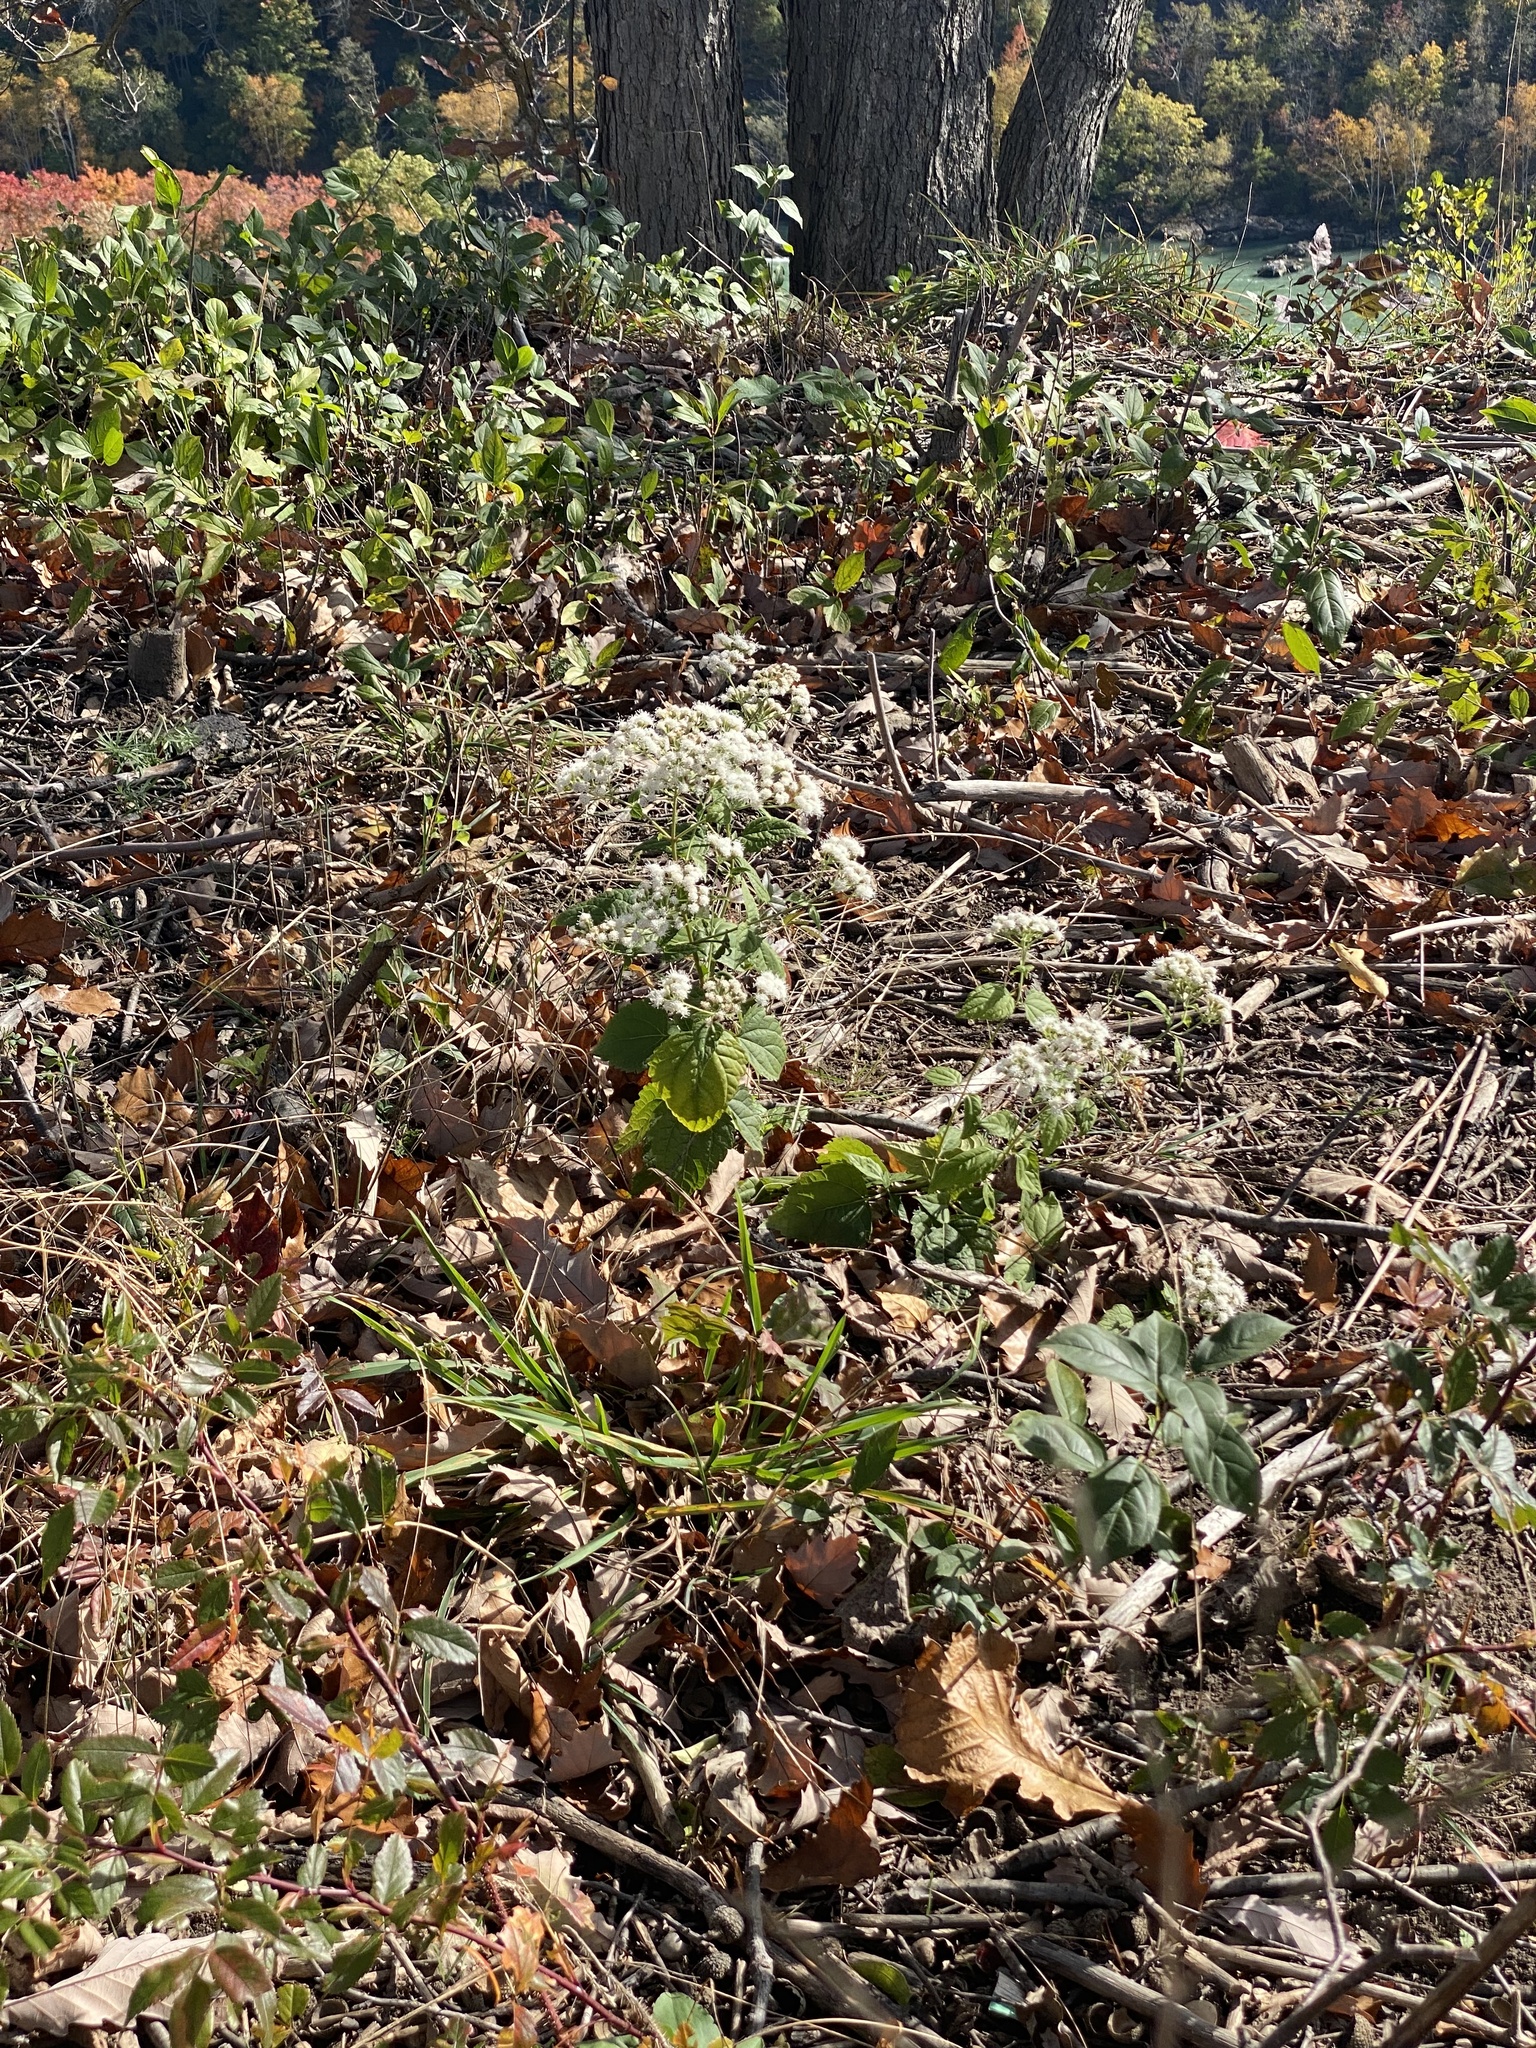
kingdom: Plantae
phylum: Tracheophyta
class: Magnoliopsida
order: Asterales
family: Asteraceae
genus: Ageratina
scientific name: Ageratina altissima
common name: White snakeroot
